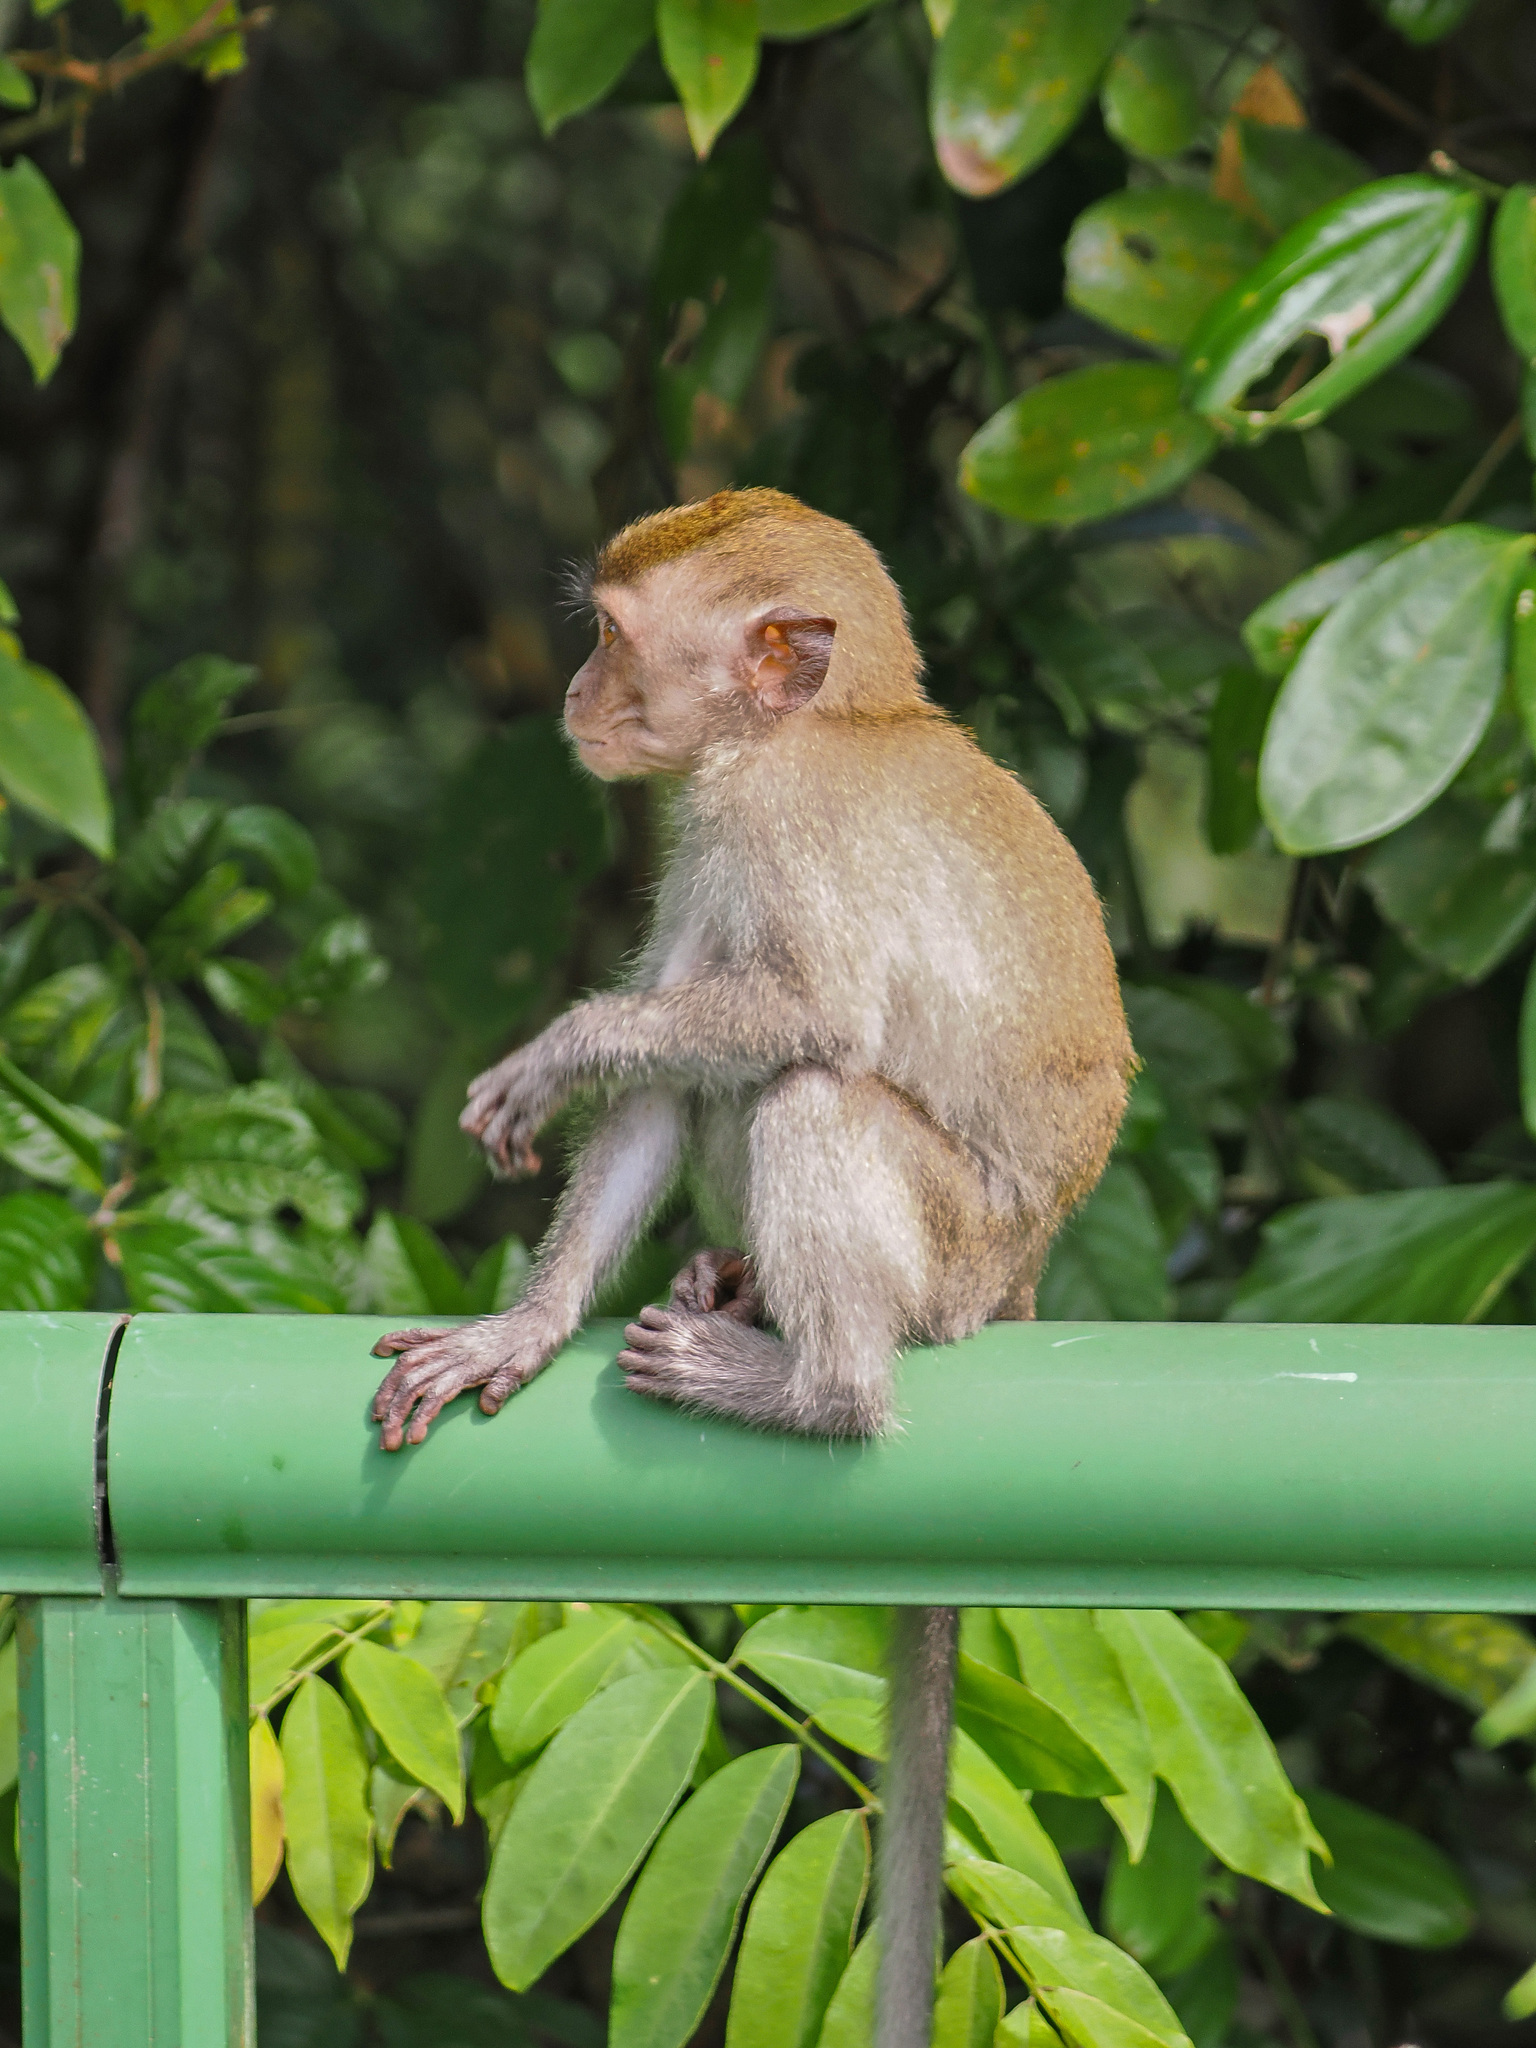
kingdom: Animalia
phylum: Chordata
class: Mammalia
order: Primates
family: Cercopithecidae
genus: Macaca
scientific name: Macaca fascicularis
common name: Crab-eating macaque
